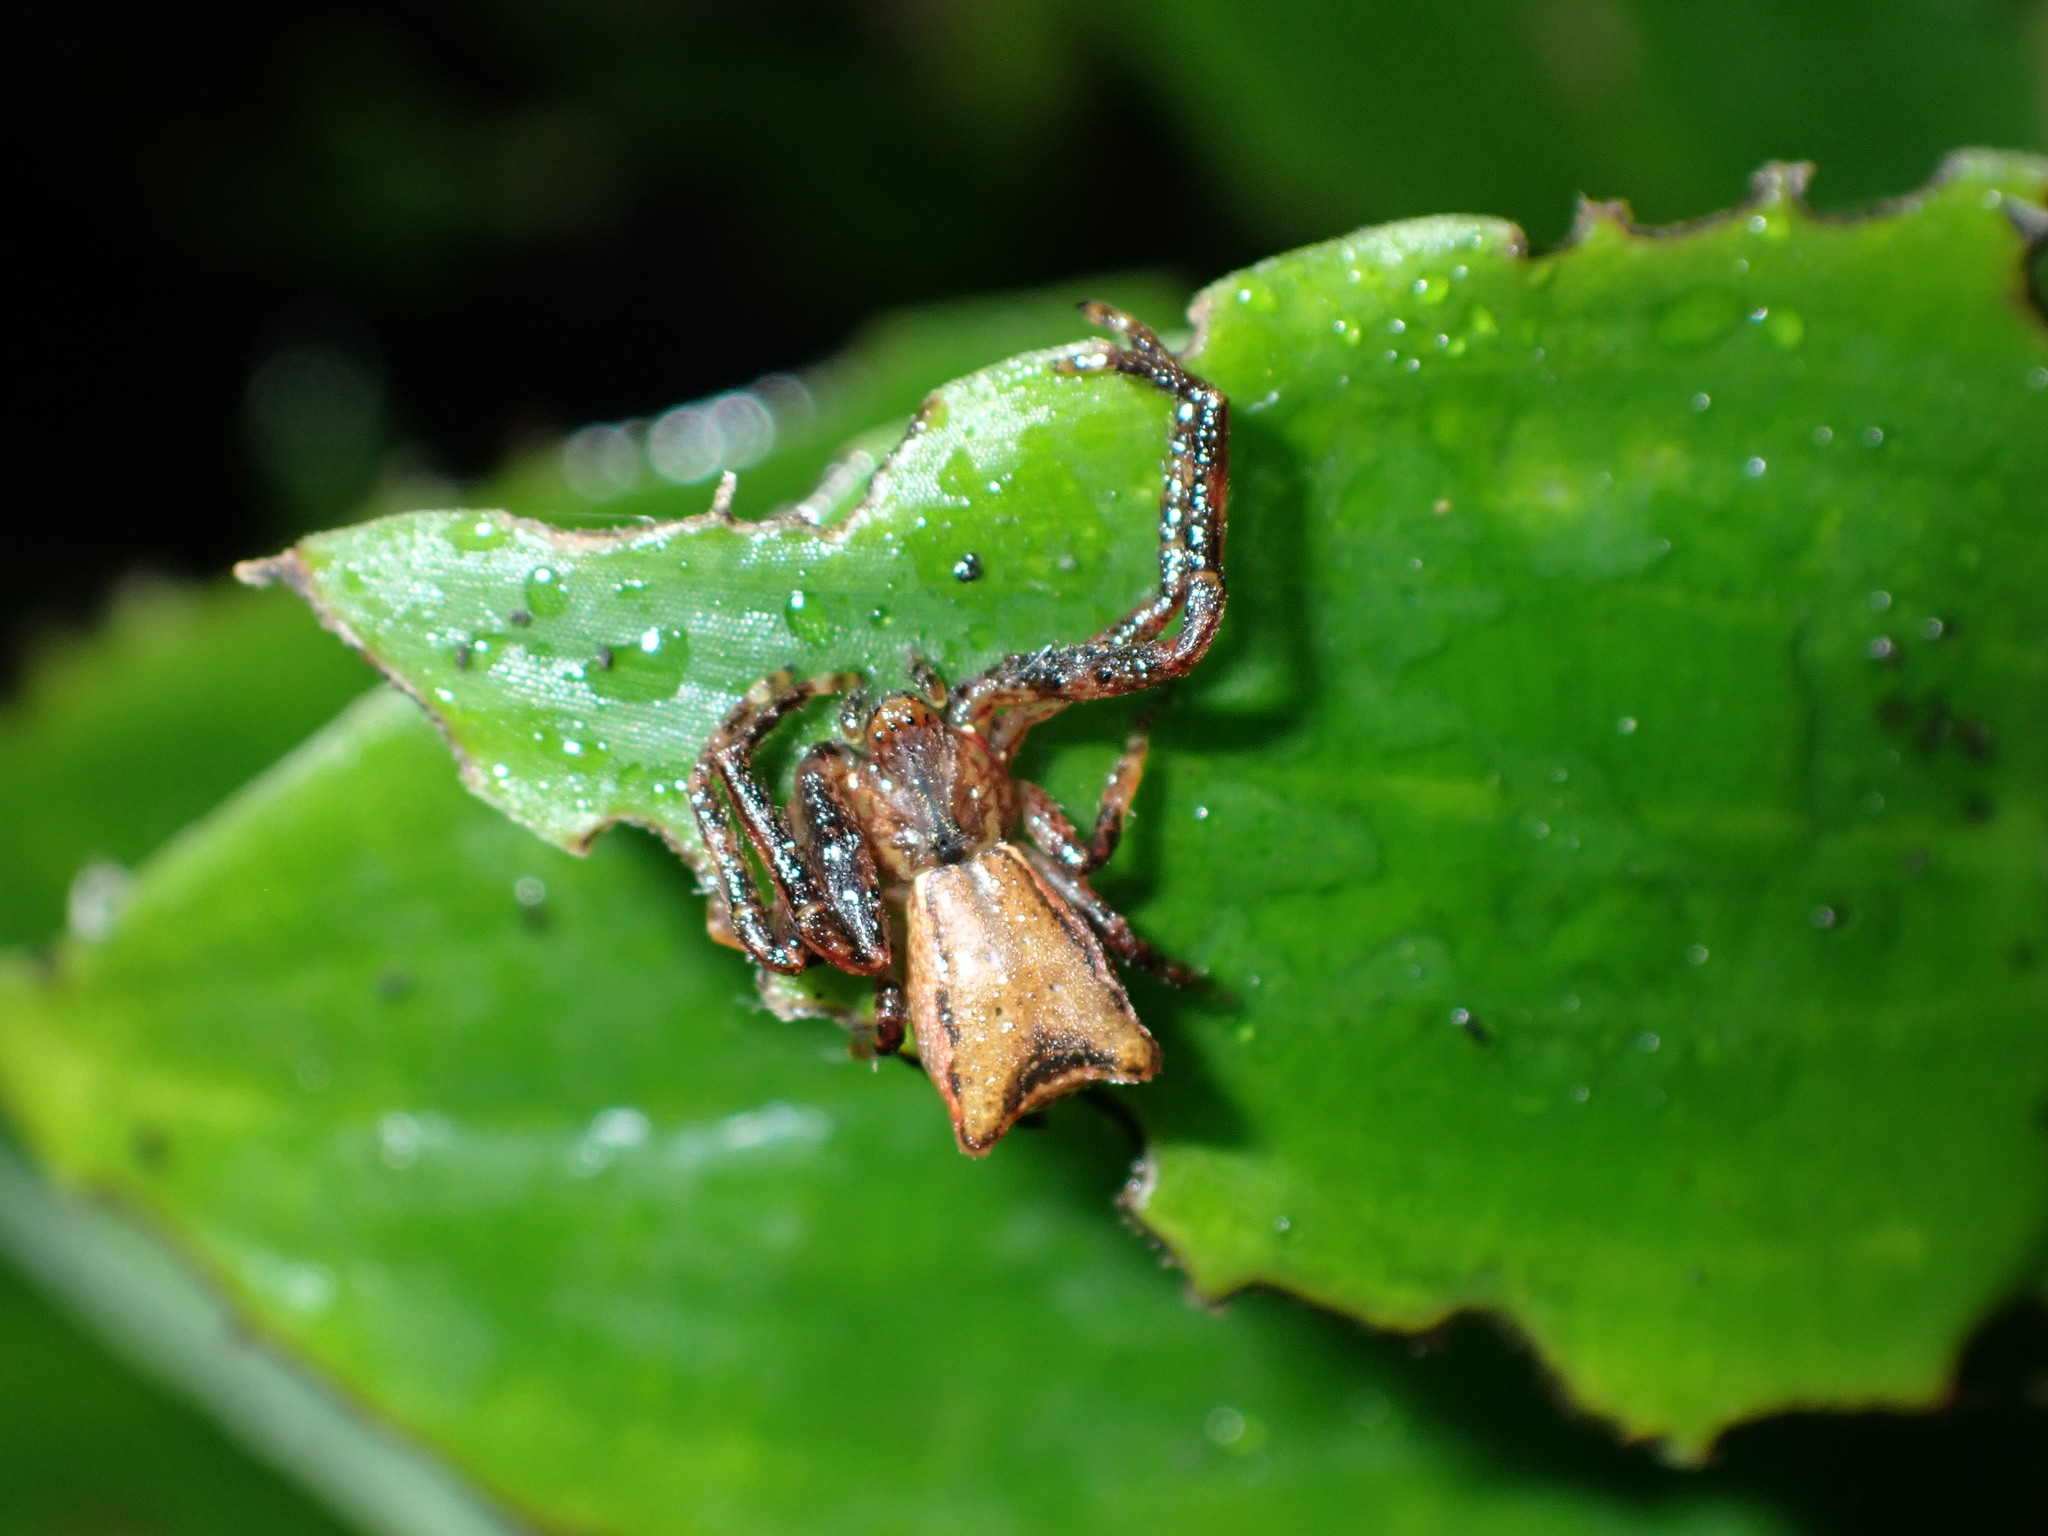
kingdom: Animalia
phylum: Arthropoda
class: Arachnida
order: Araneae
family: Thomisidae
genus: Sidymella
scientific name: Sidymella angularis
